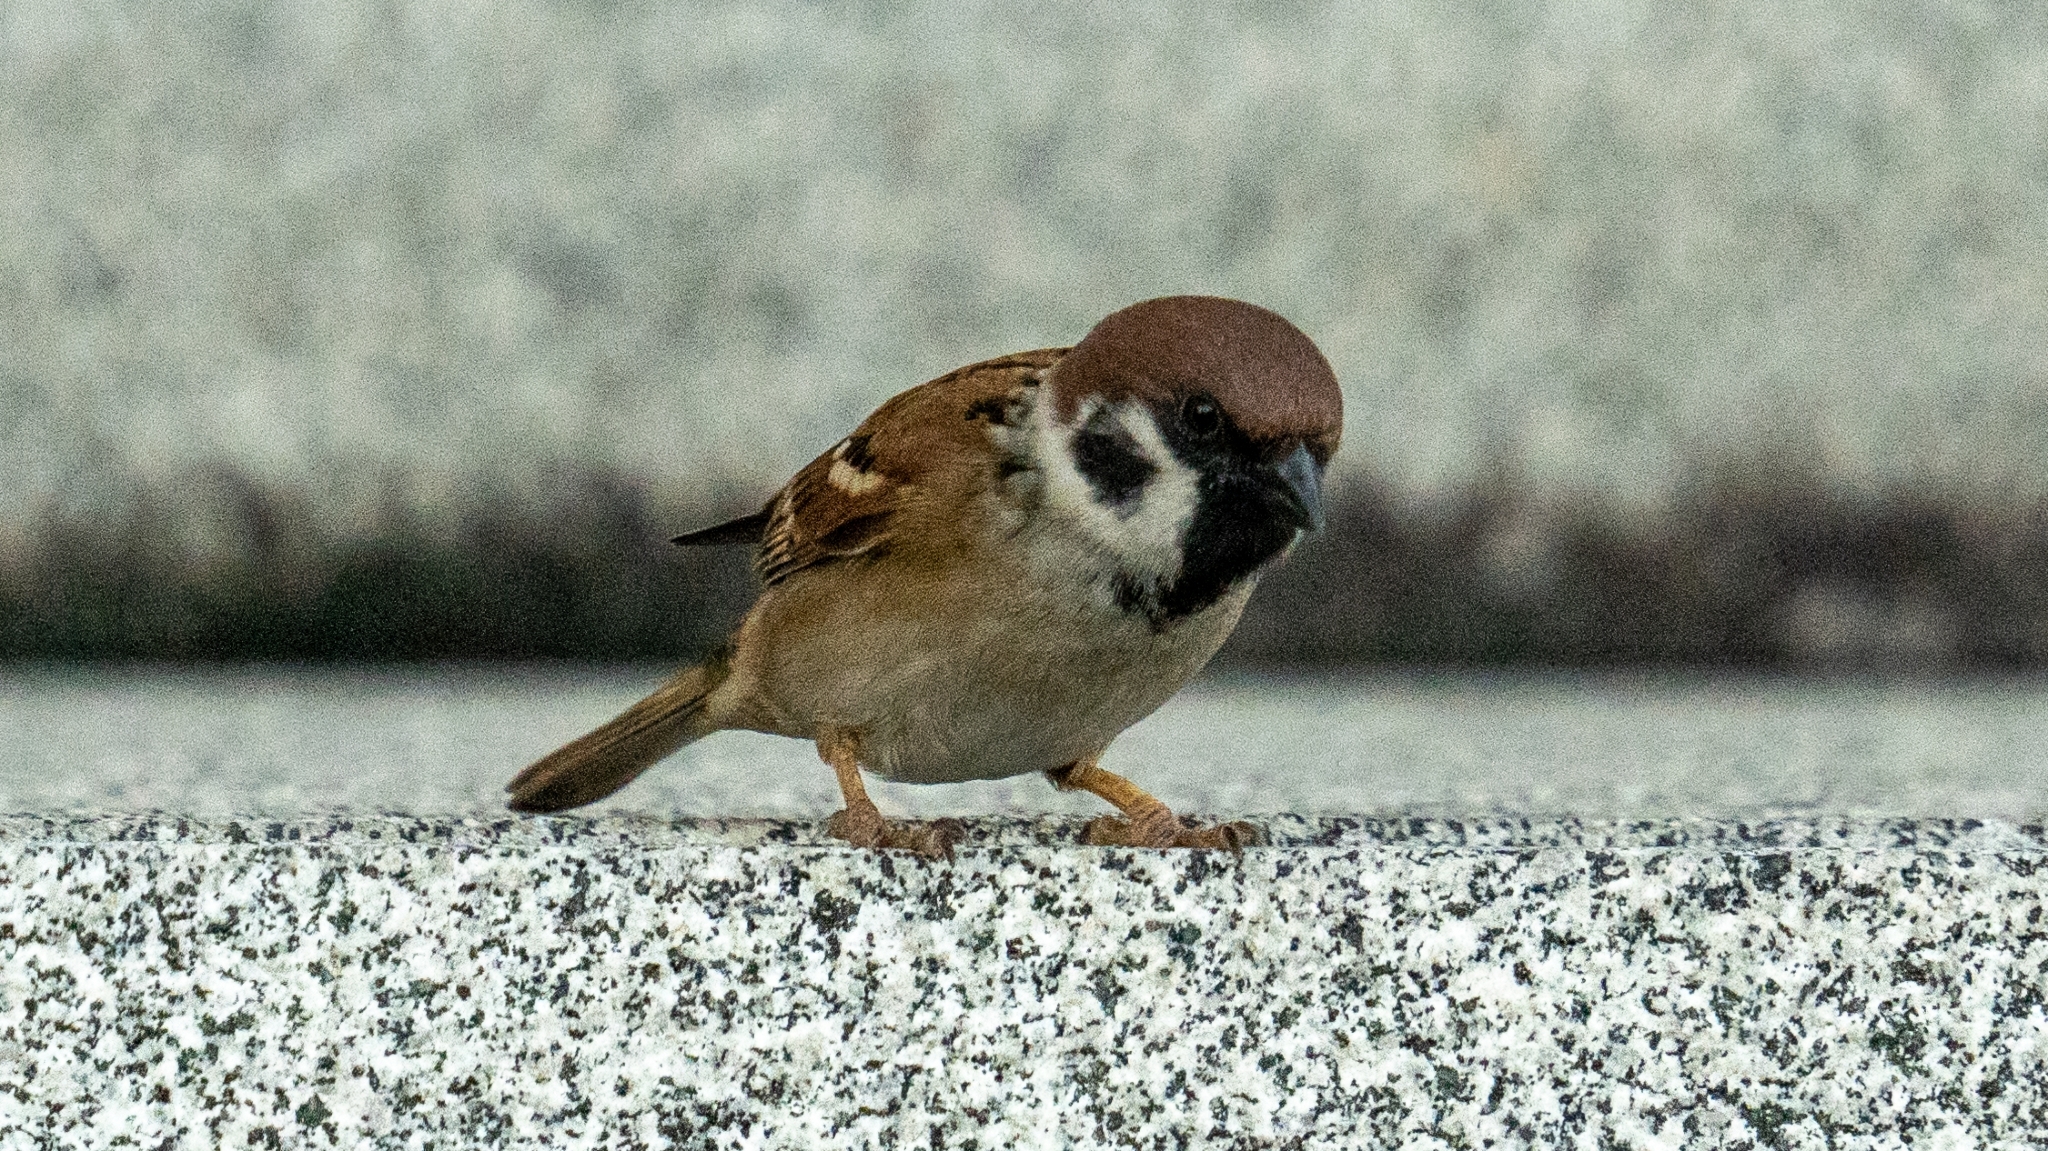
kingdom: Animalia
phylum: Chordata
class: Aves
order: Passeriformes
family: Passeridae
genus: Passer
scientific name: Passer montanus
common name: Eurasian tree sparrow
